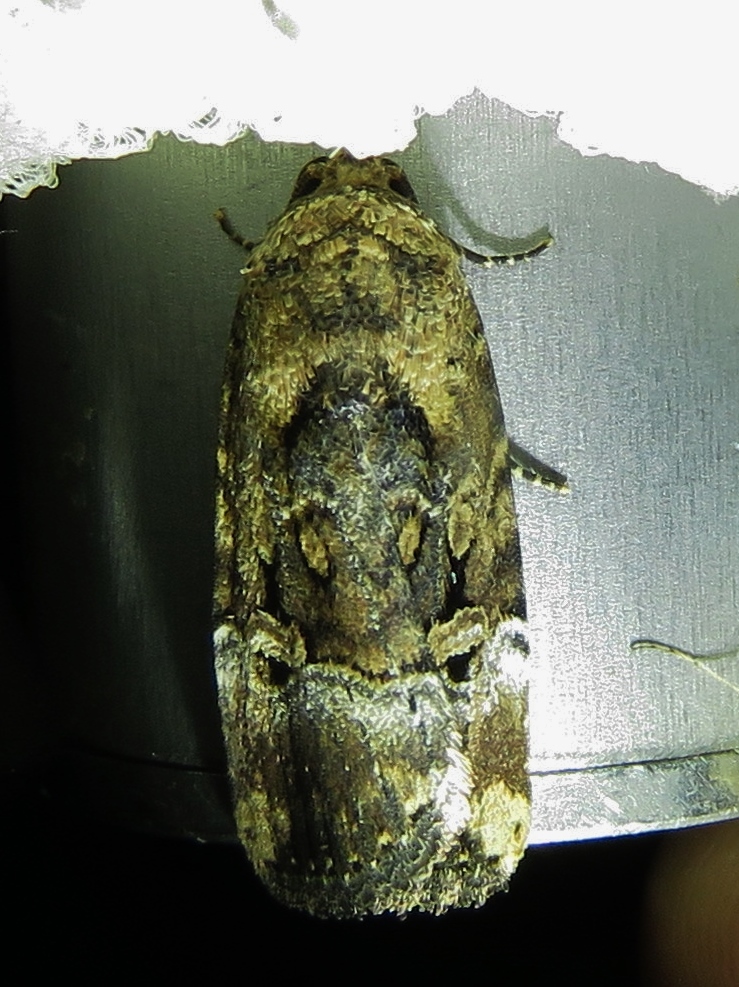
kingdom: Animalia
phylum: Arthropoda
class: Insecta
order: Lepidoptera
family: Noctuidae
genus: Elaphria
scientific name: Elaphria chalcedonia
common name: Chalcedony midget
